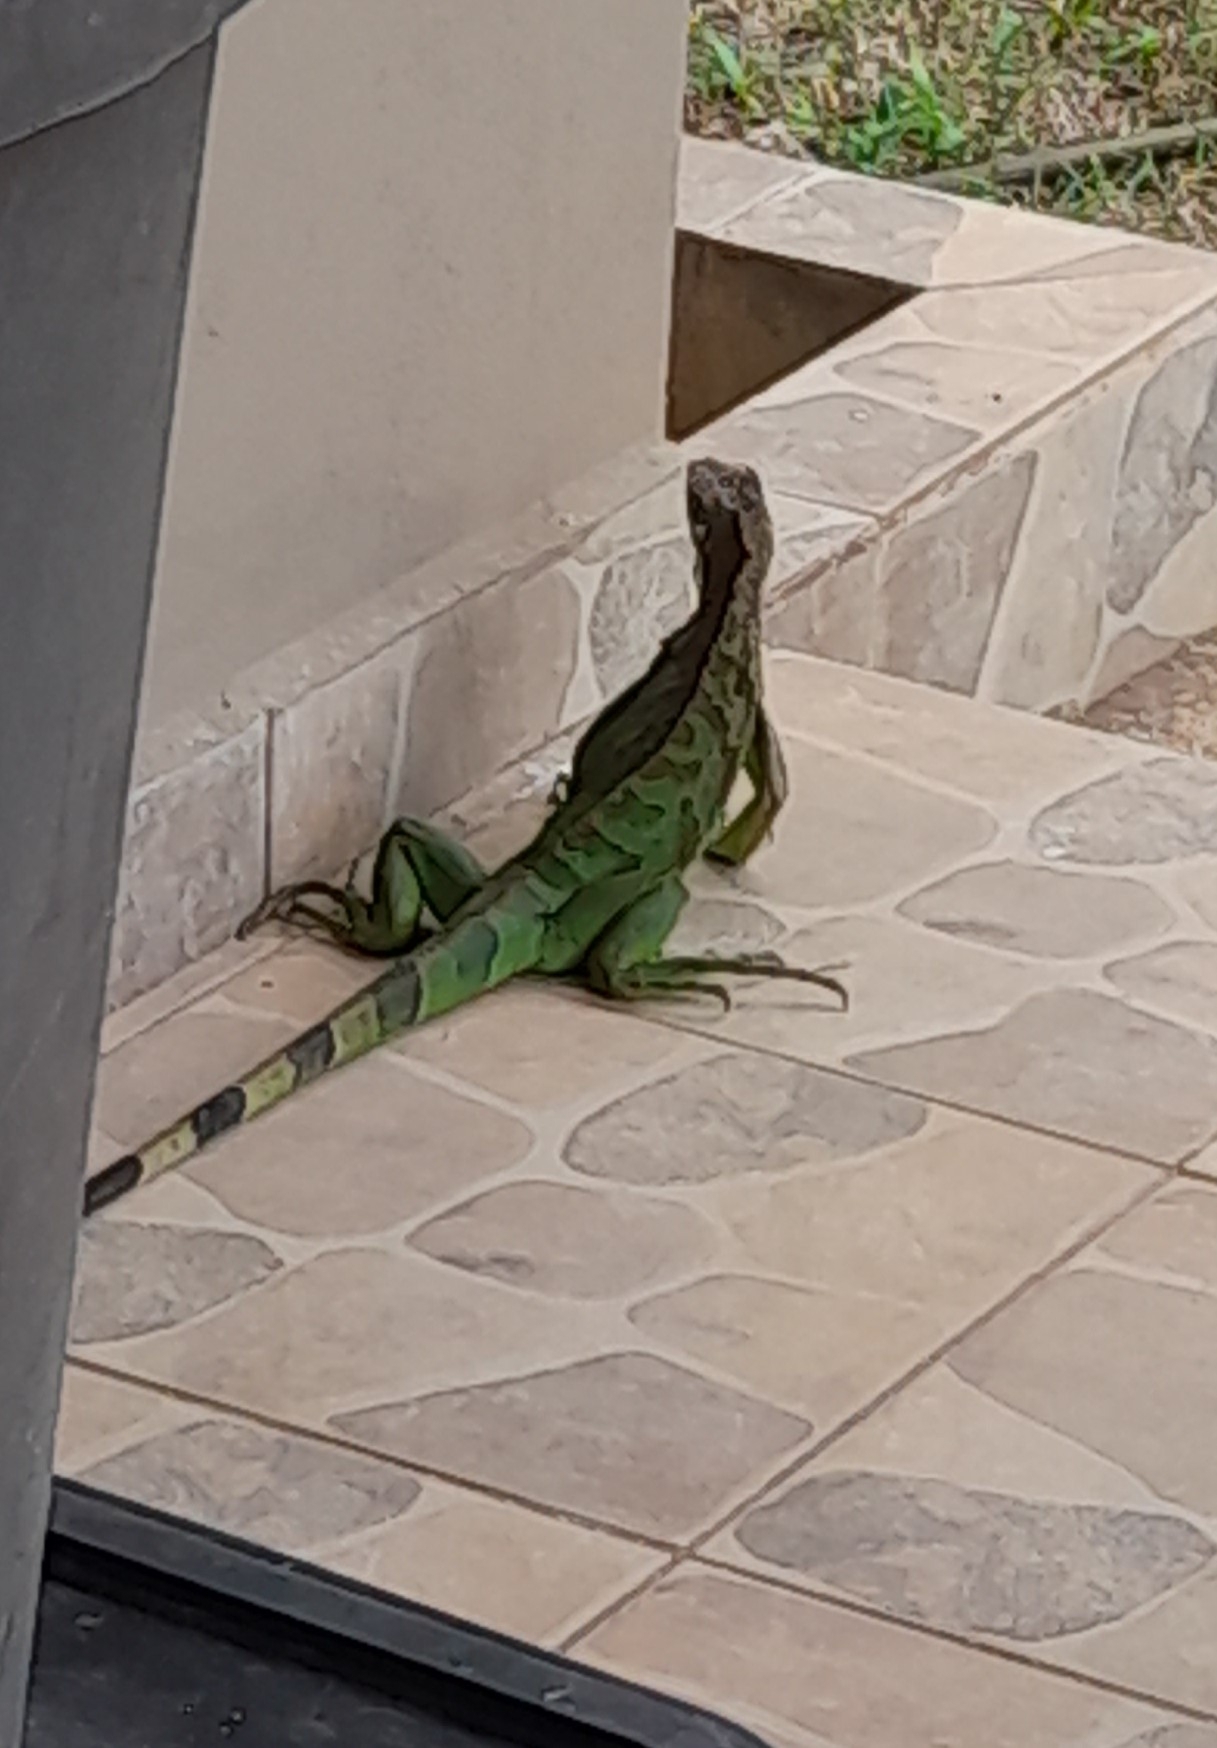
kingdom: Animalia
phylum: Chordata
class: Squamata
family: Iguanidae
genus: Iguana
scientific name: Iguana iguana
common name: Green iguana
